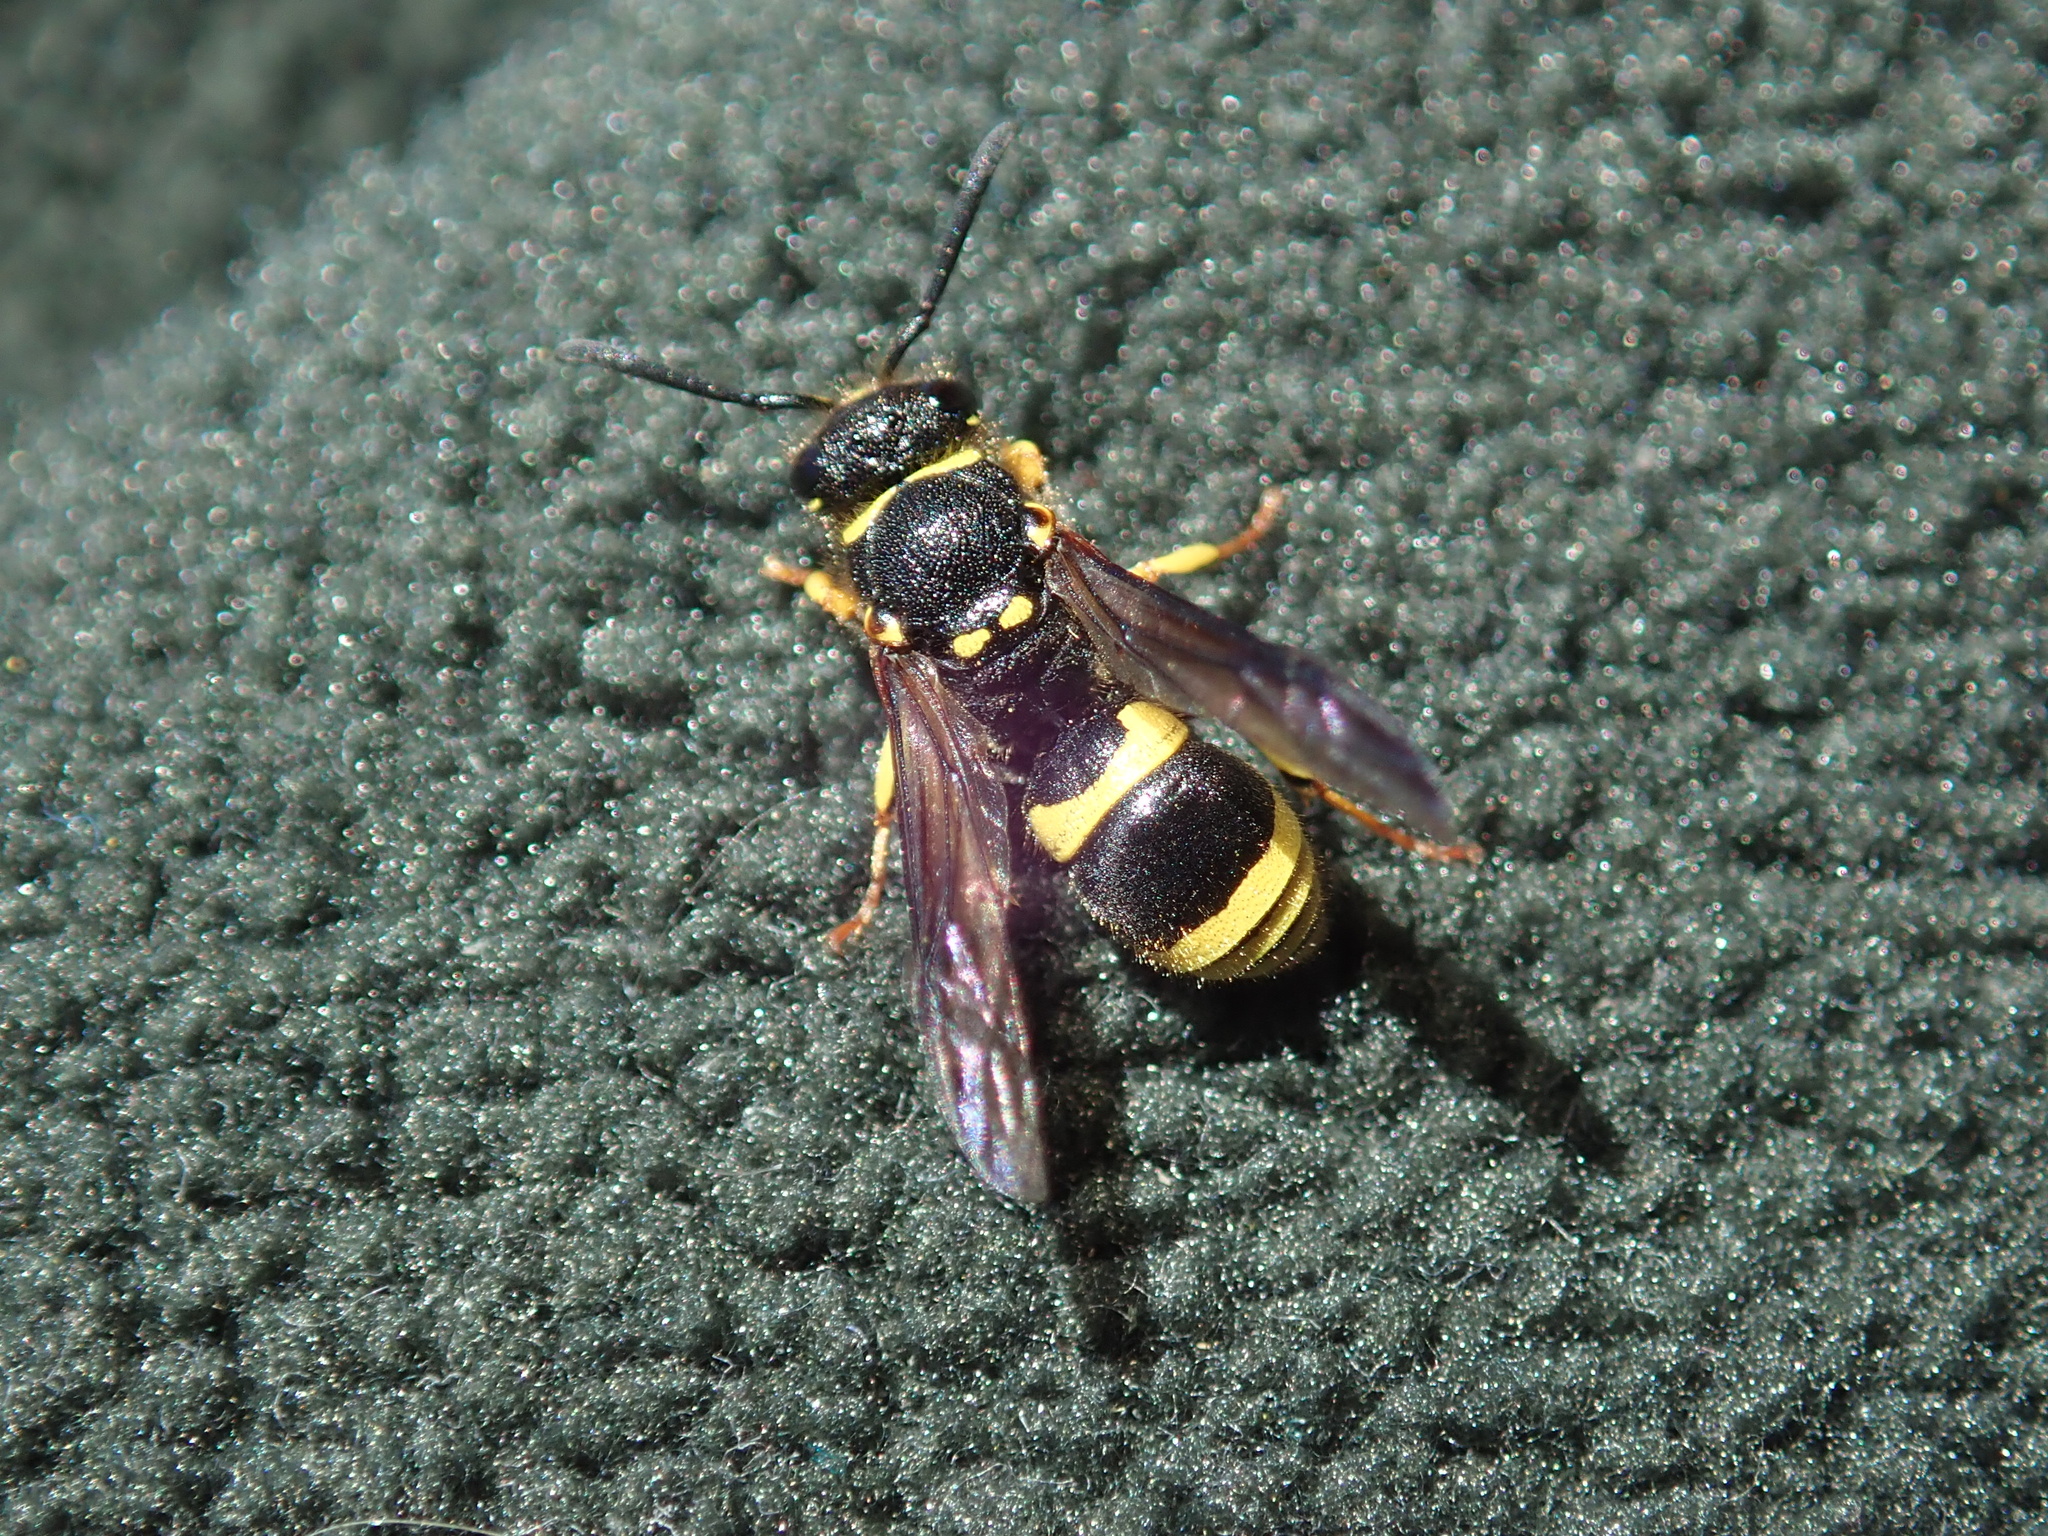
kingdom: Animalia
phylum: Arthropoda
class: Insecta
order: Hymenoptera
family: Vespidae
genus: Ancistrocerus
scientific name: Ancistrocerus gazella
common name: European tube wasp
